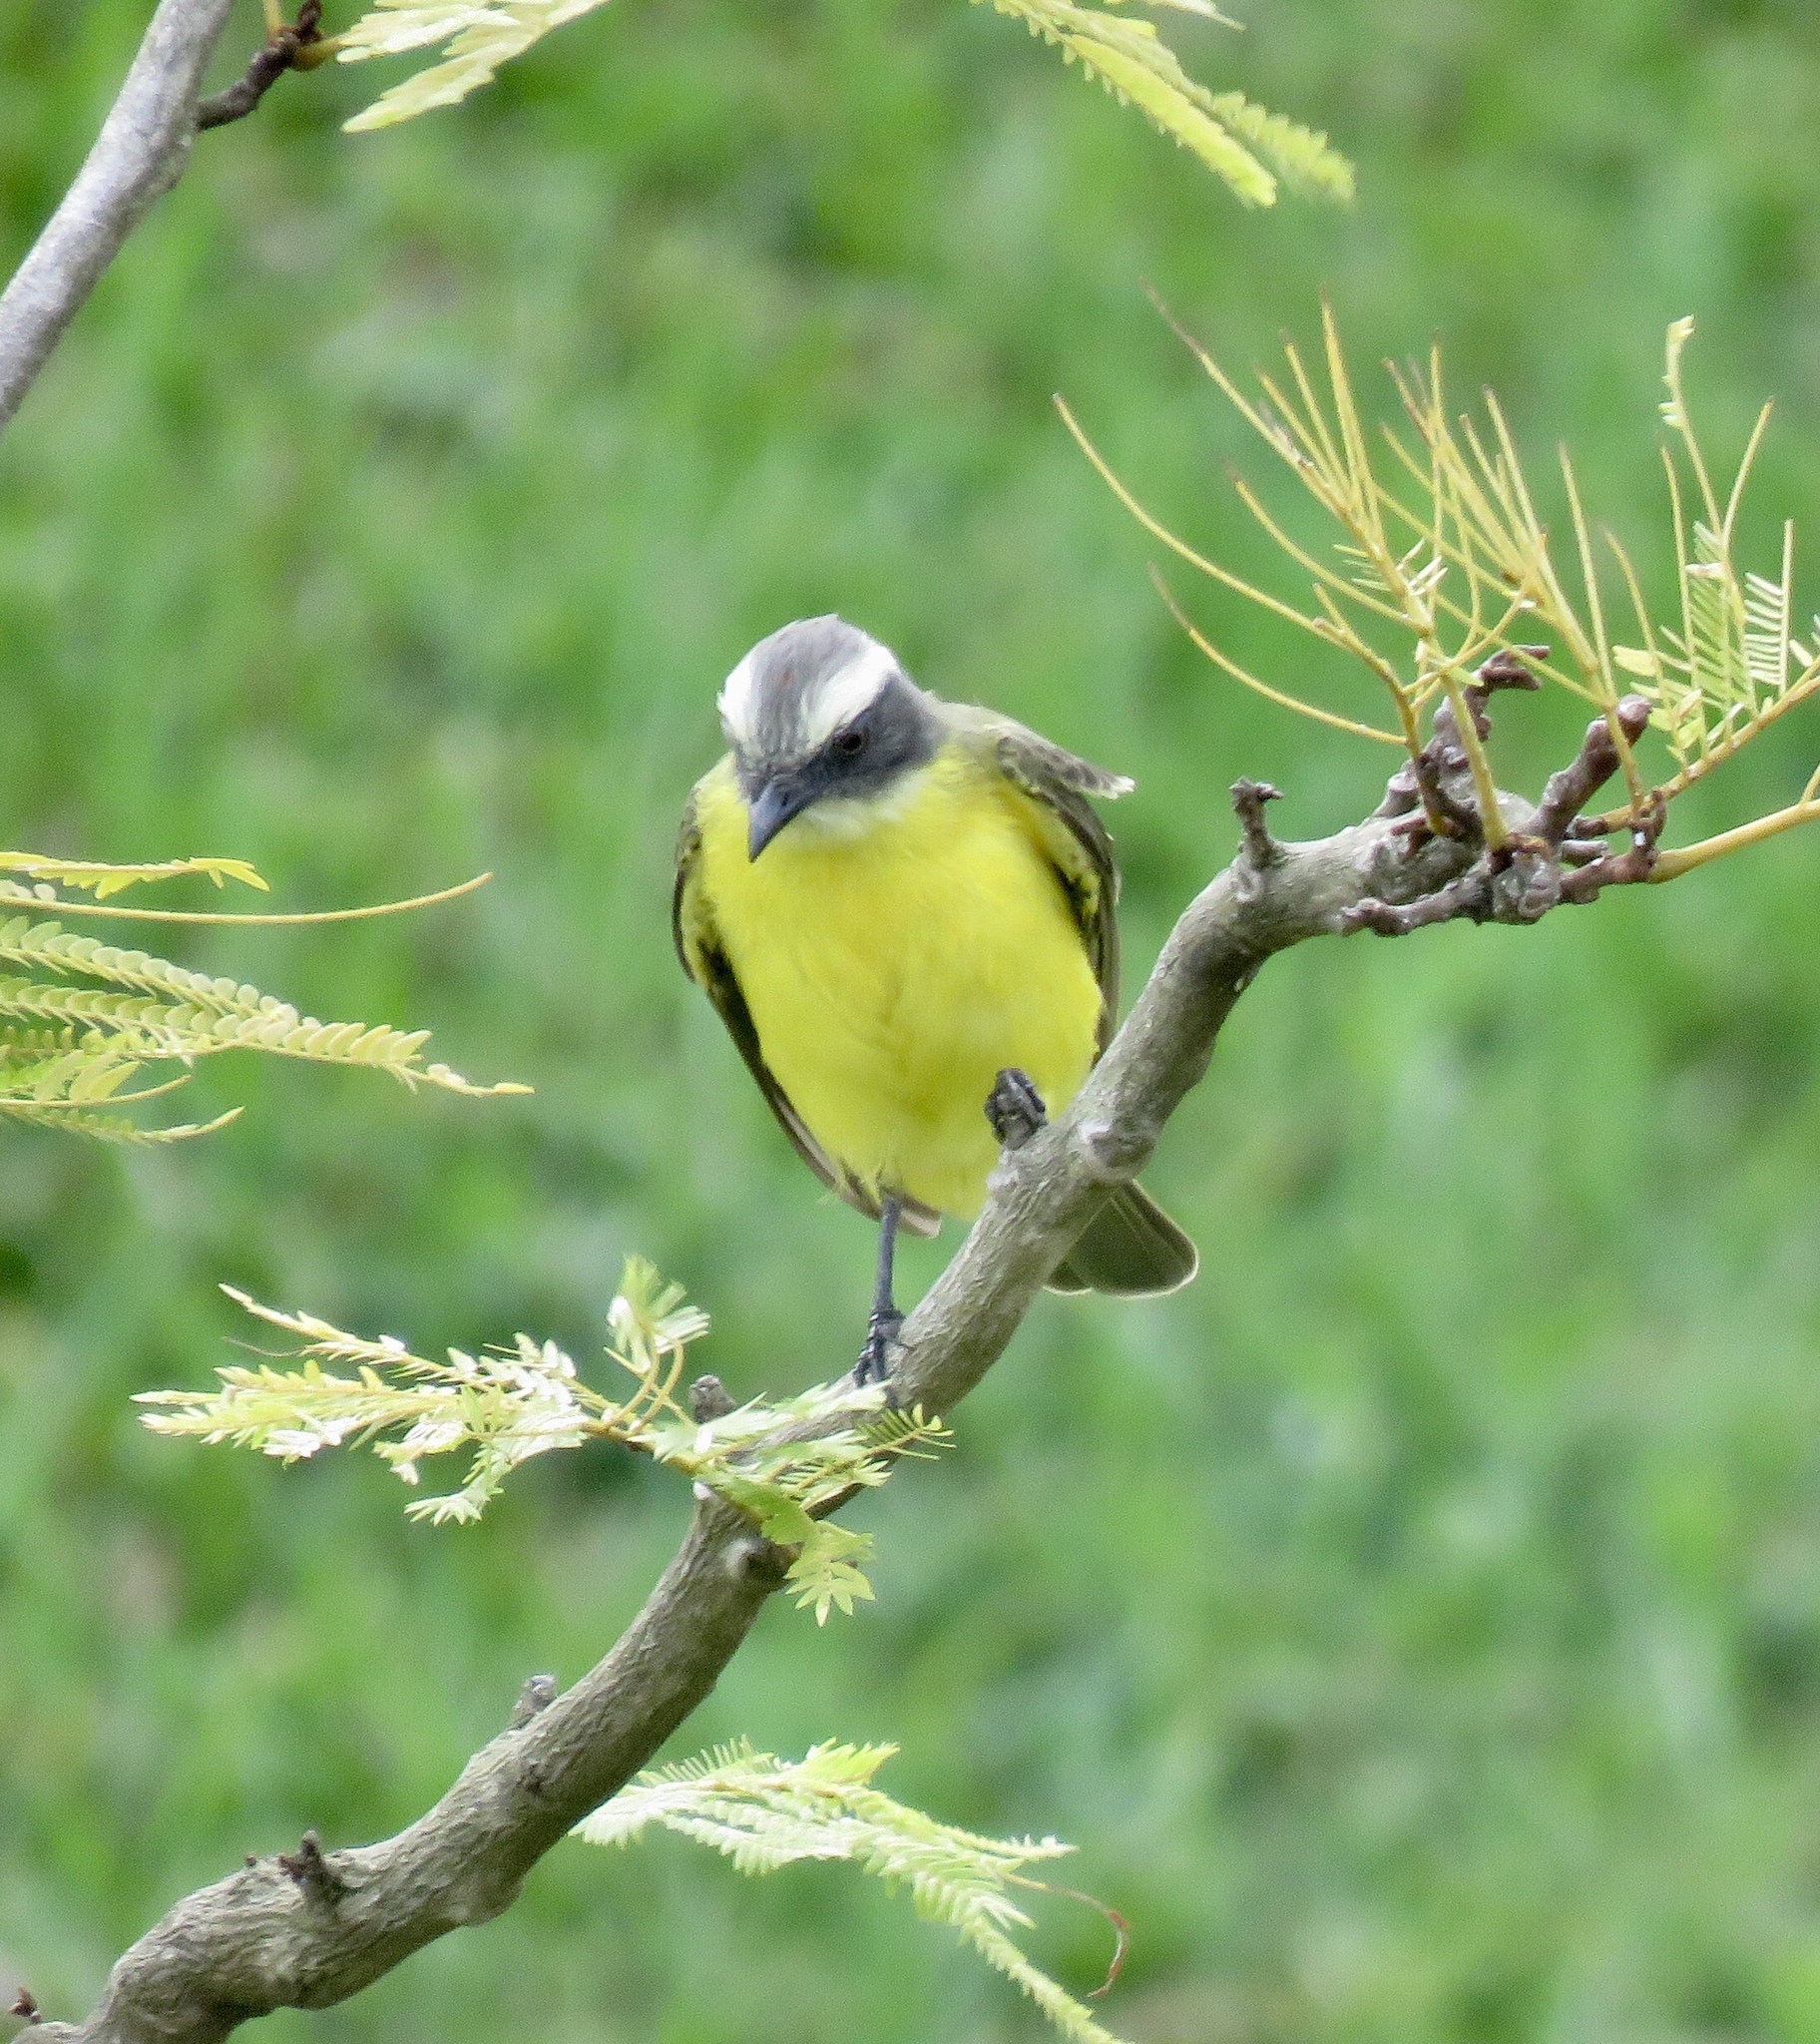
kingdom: Animalia
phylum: Chordata
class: Aves
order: Passeriformes
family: Tyrannidae
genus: Myiozetetes
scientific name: Myiozetetes similis
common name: Social flycatcher
